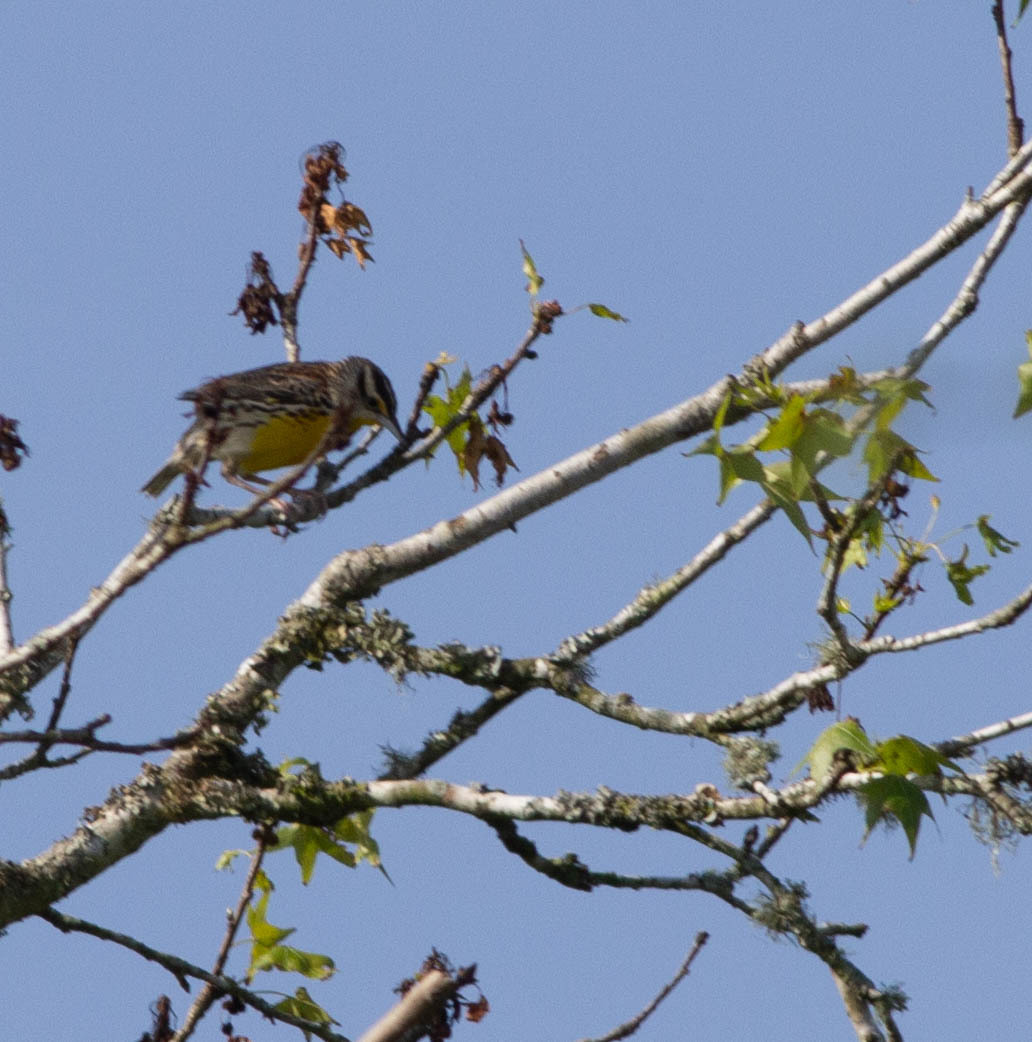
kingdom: Animalia
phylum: Chordata
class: Aves
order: Passeriformes
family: Icteridae
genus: Sturnella
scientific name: Sturnella magna
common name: Eastern meadowlark
